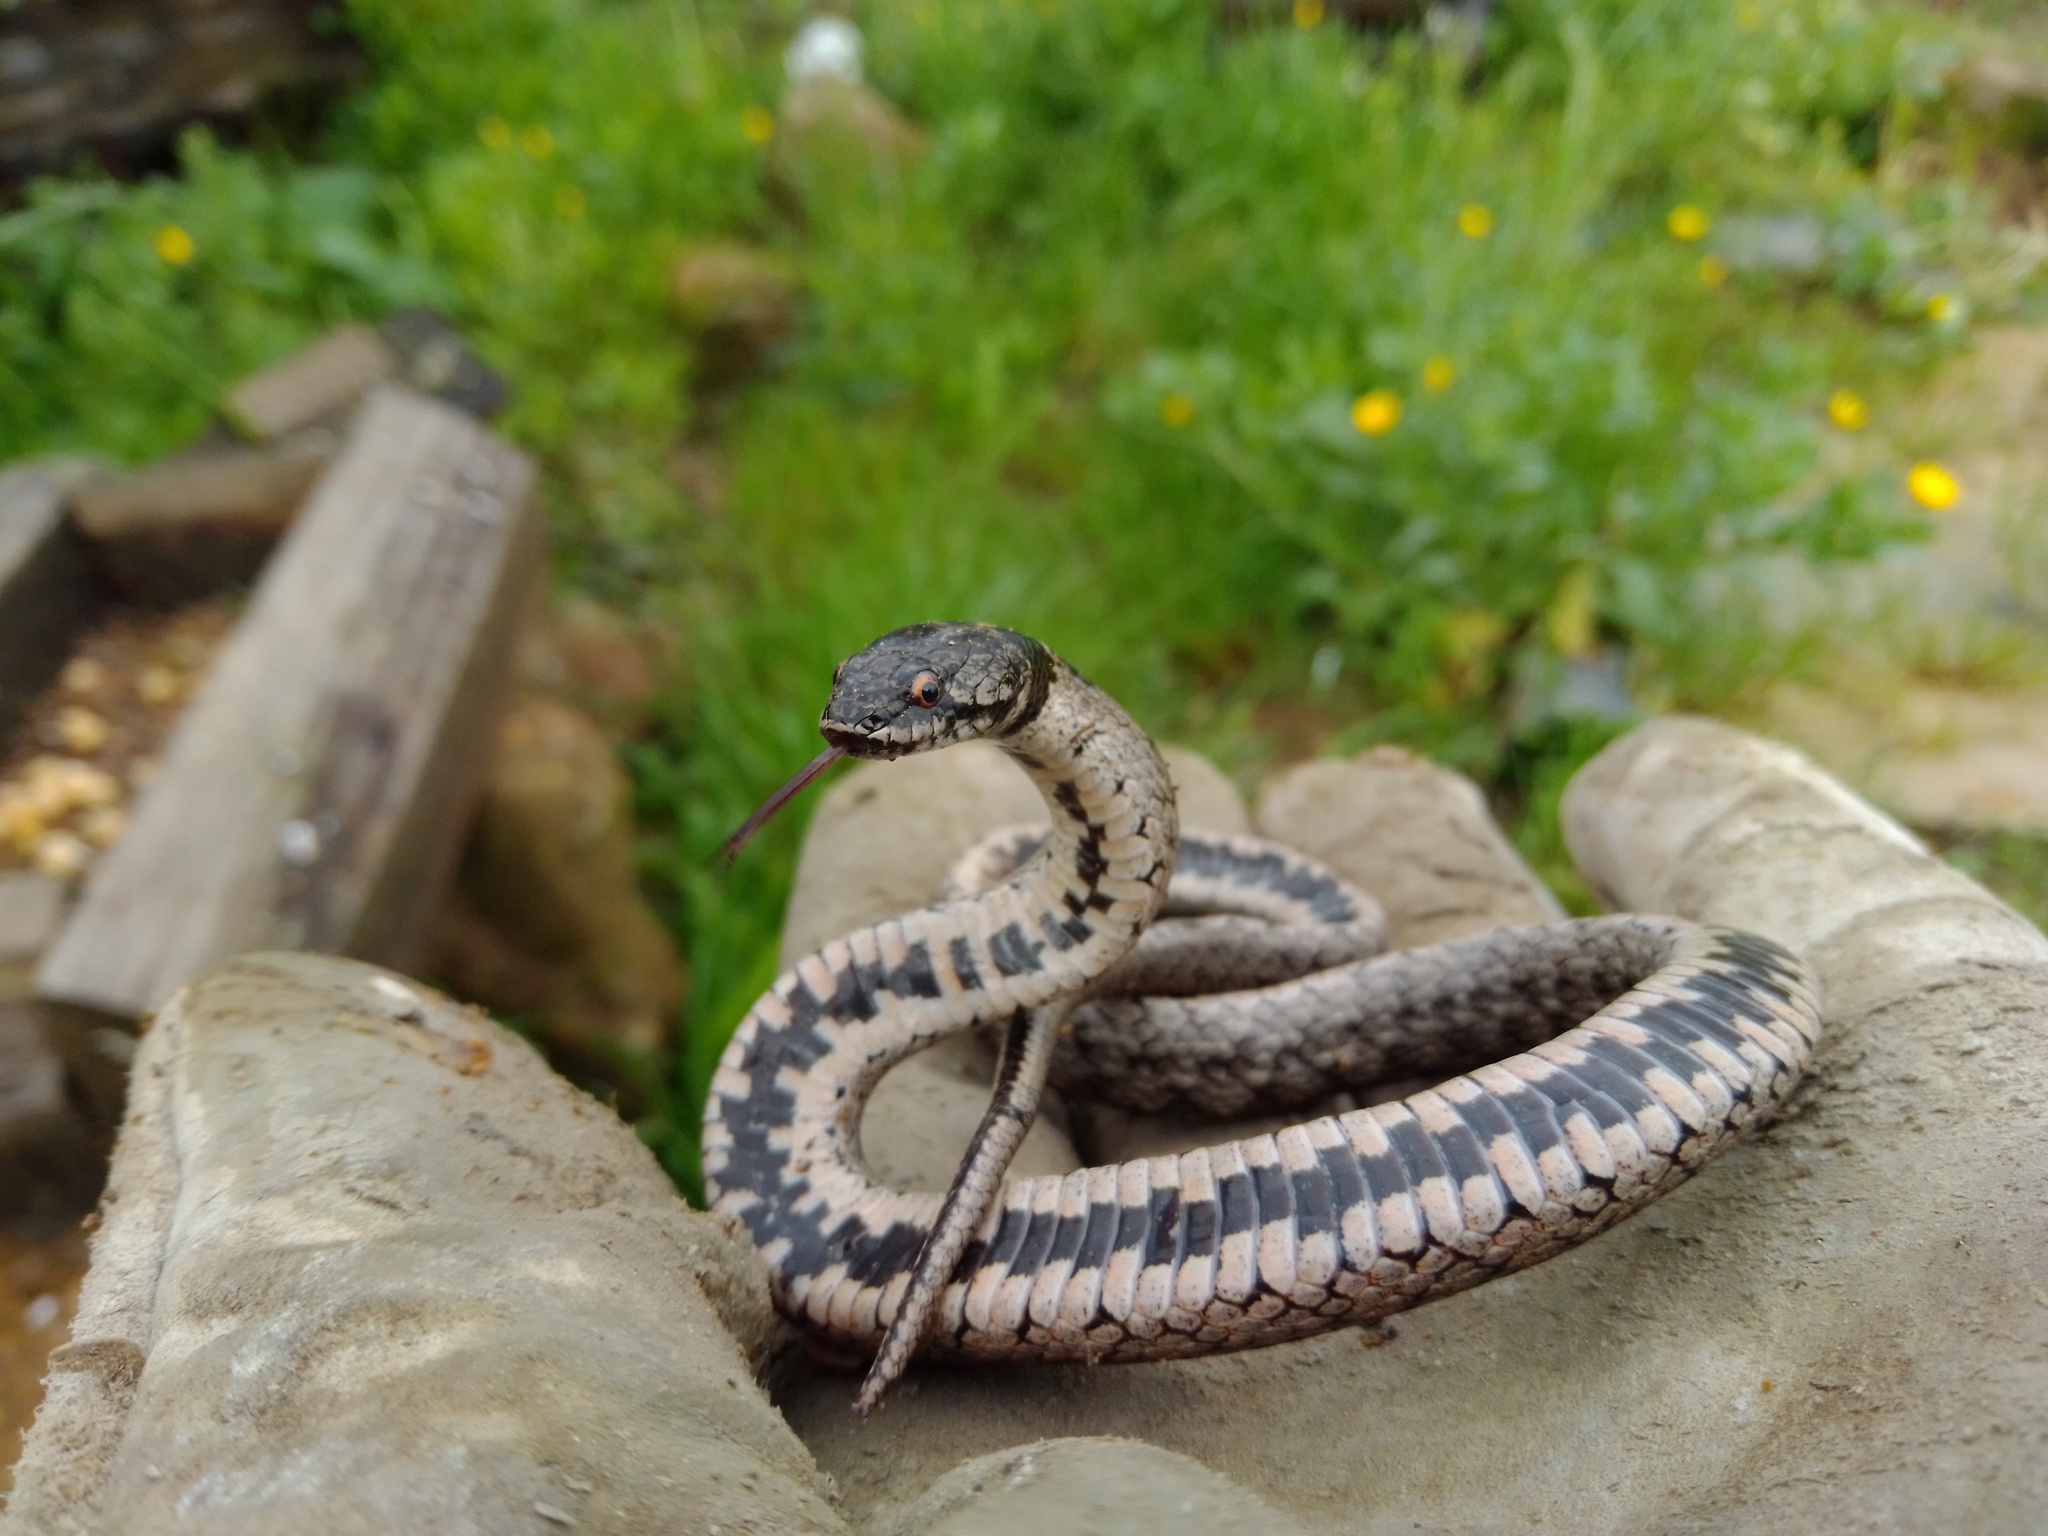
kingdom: Animalia
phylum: Chordata
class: Squamata
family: Colubridae
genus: Macroprotodon
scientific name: Macroprotodon brevis
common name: Iberian false smooth snake
